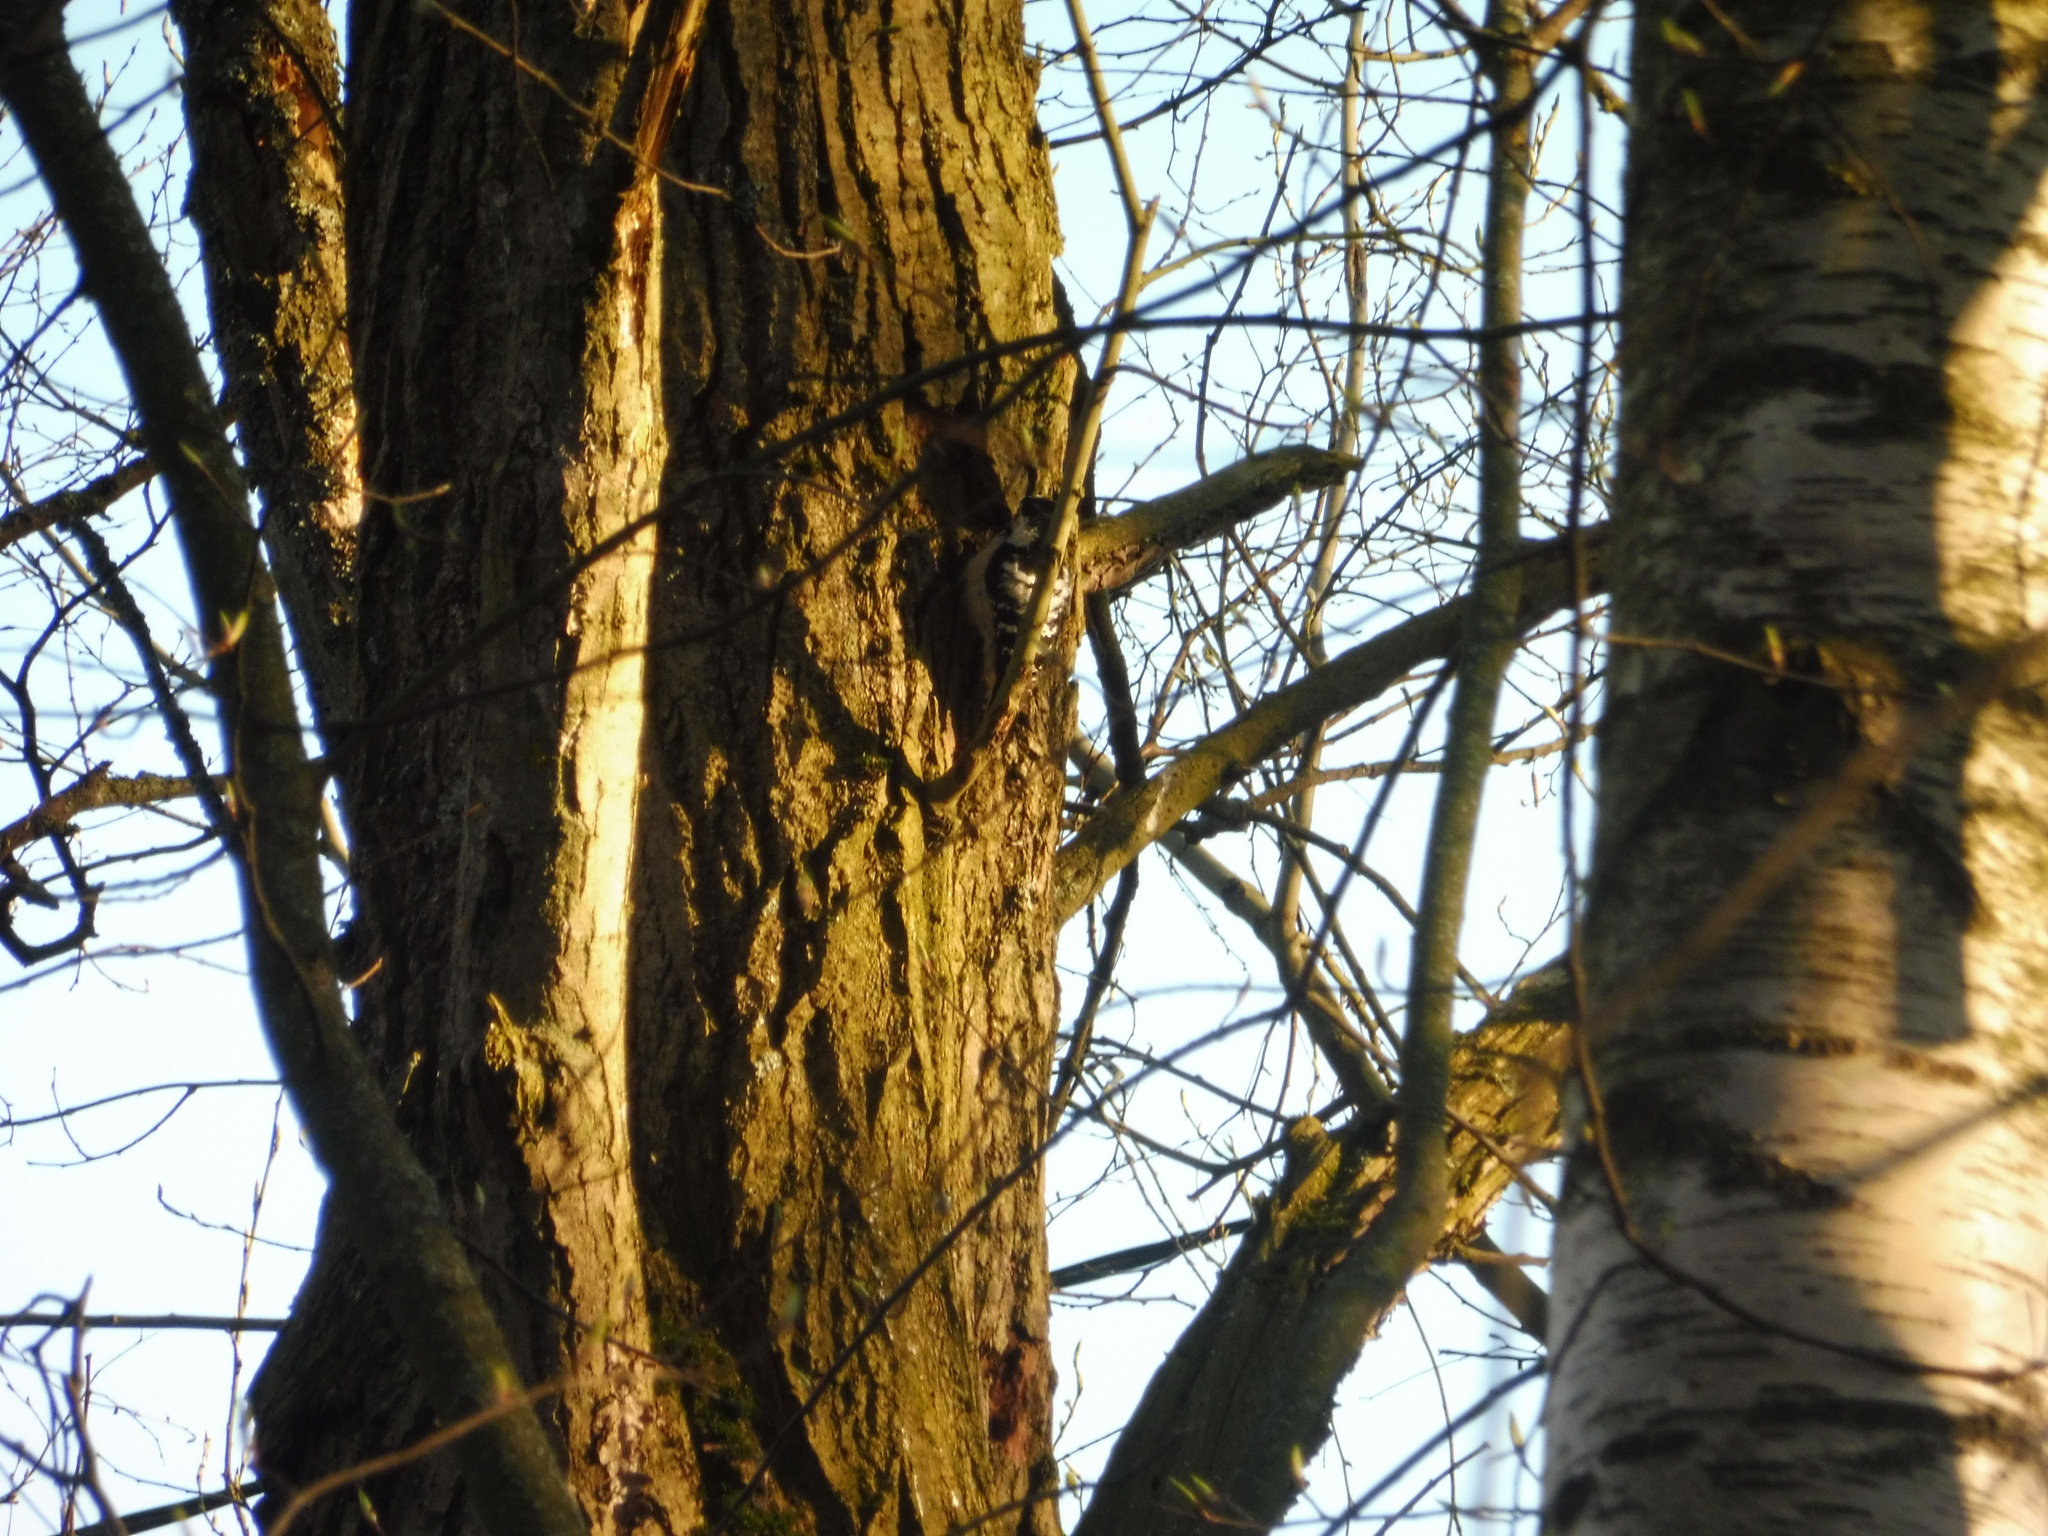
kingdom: Animalia
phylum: Chordata
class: Aves
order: Piciformes
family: Picidae
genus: Dryobates
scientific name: Dryobates minor
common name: Lesser spotted woodpecker
